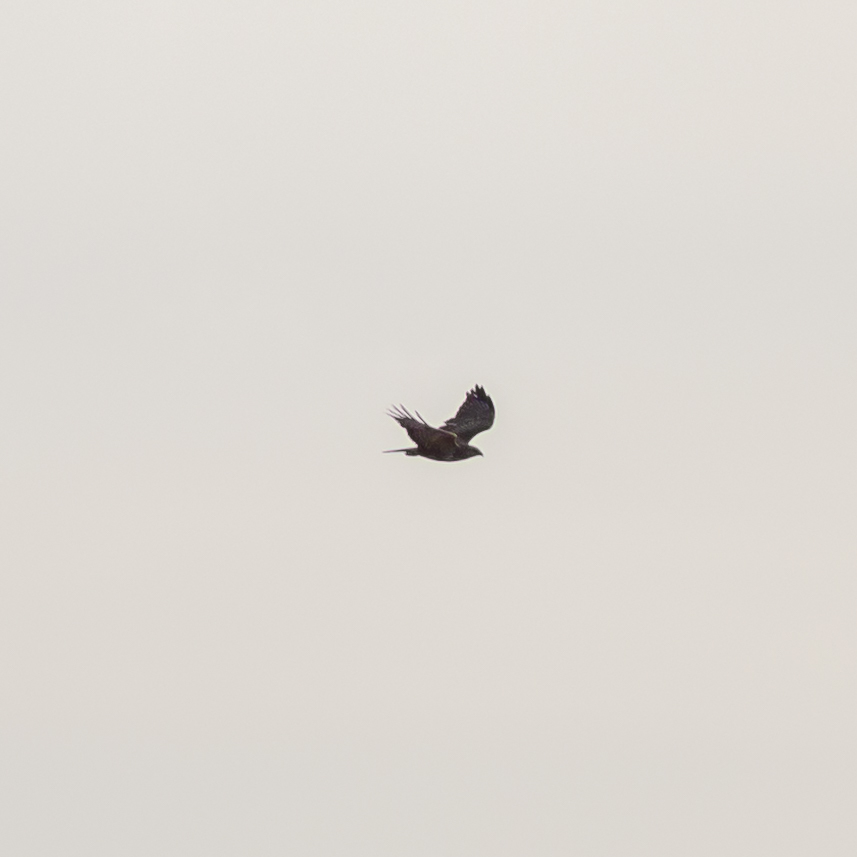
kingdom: Animalia
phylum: Chordata
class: Aves
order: Accipitriformes
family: Accipitridae
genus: Buteo
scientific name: Buteo buteo
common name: Common buzzard
